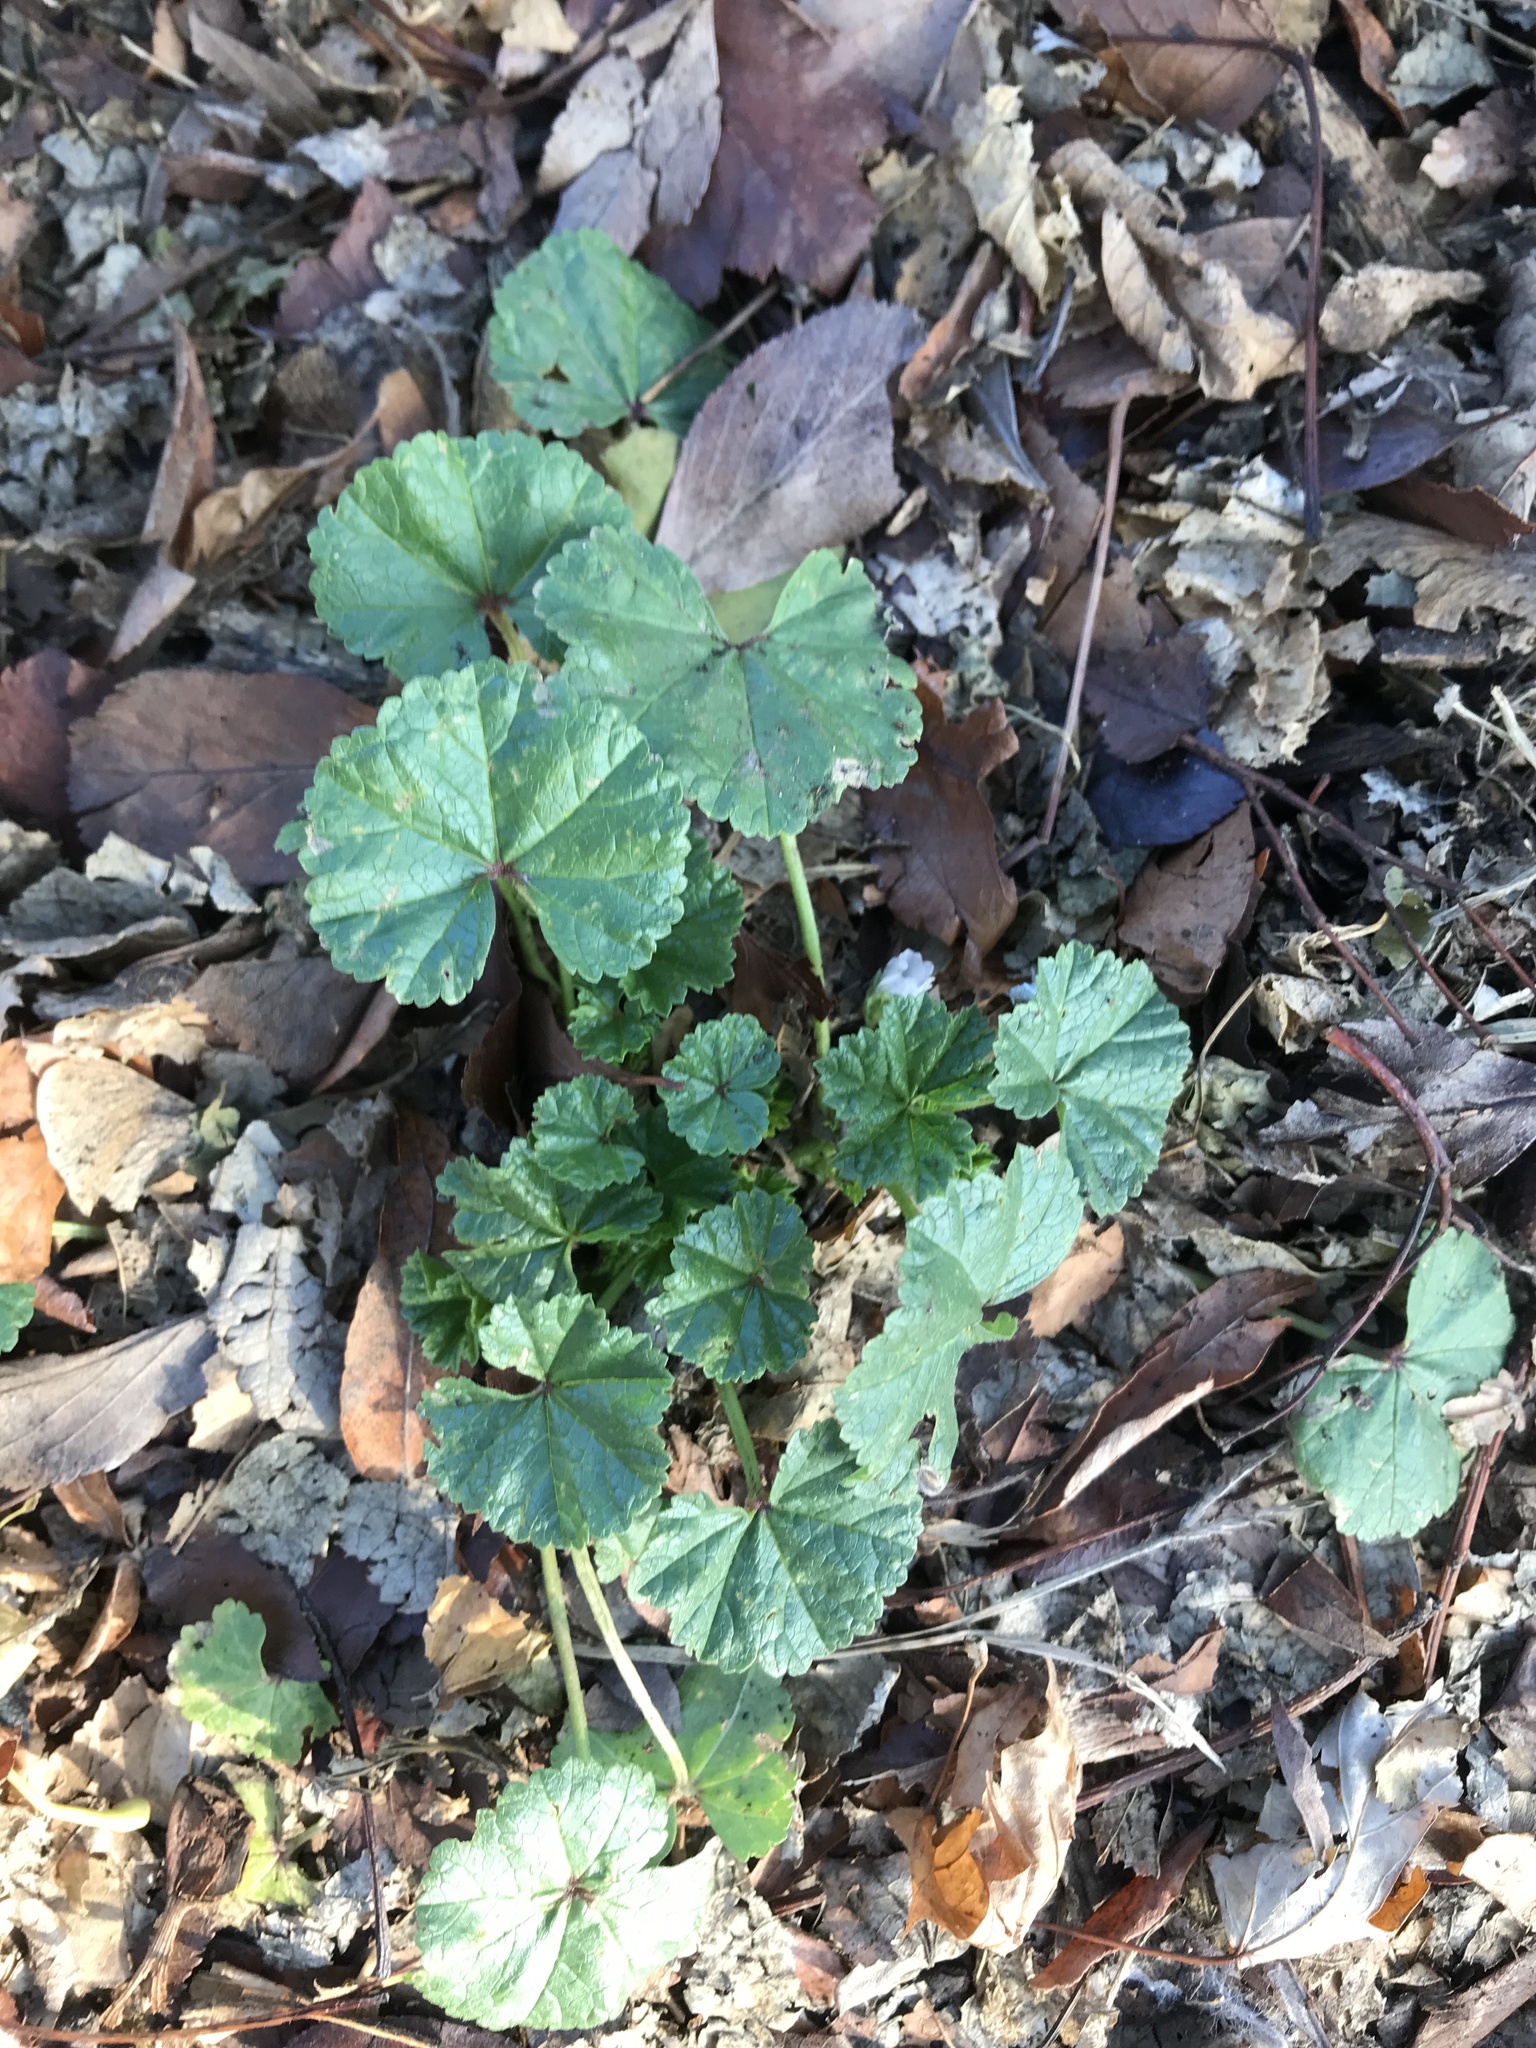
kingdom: Plantae
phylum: Tracheophyta
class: Magnoliopsida
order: Malvales
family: Malvaceae
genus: Malva
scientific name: Malva neglecta
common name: Common mallow
